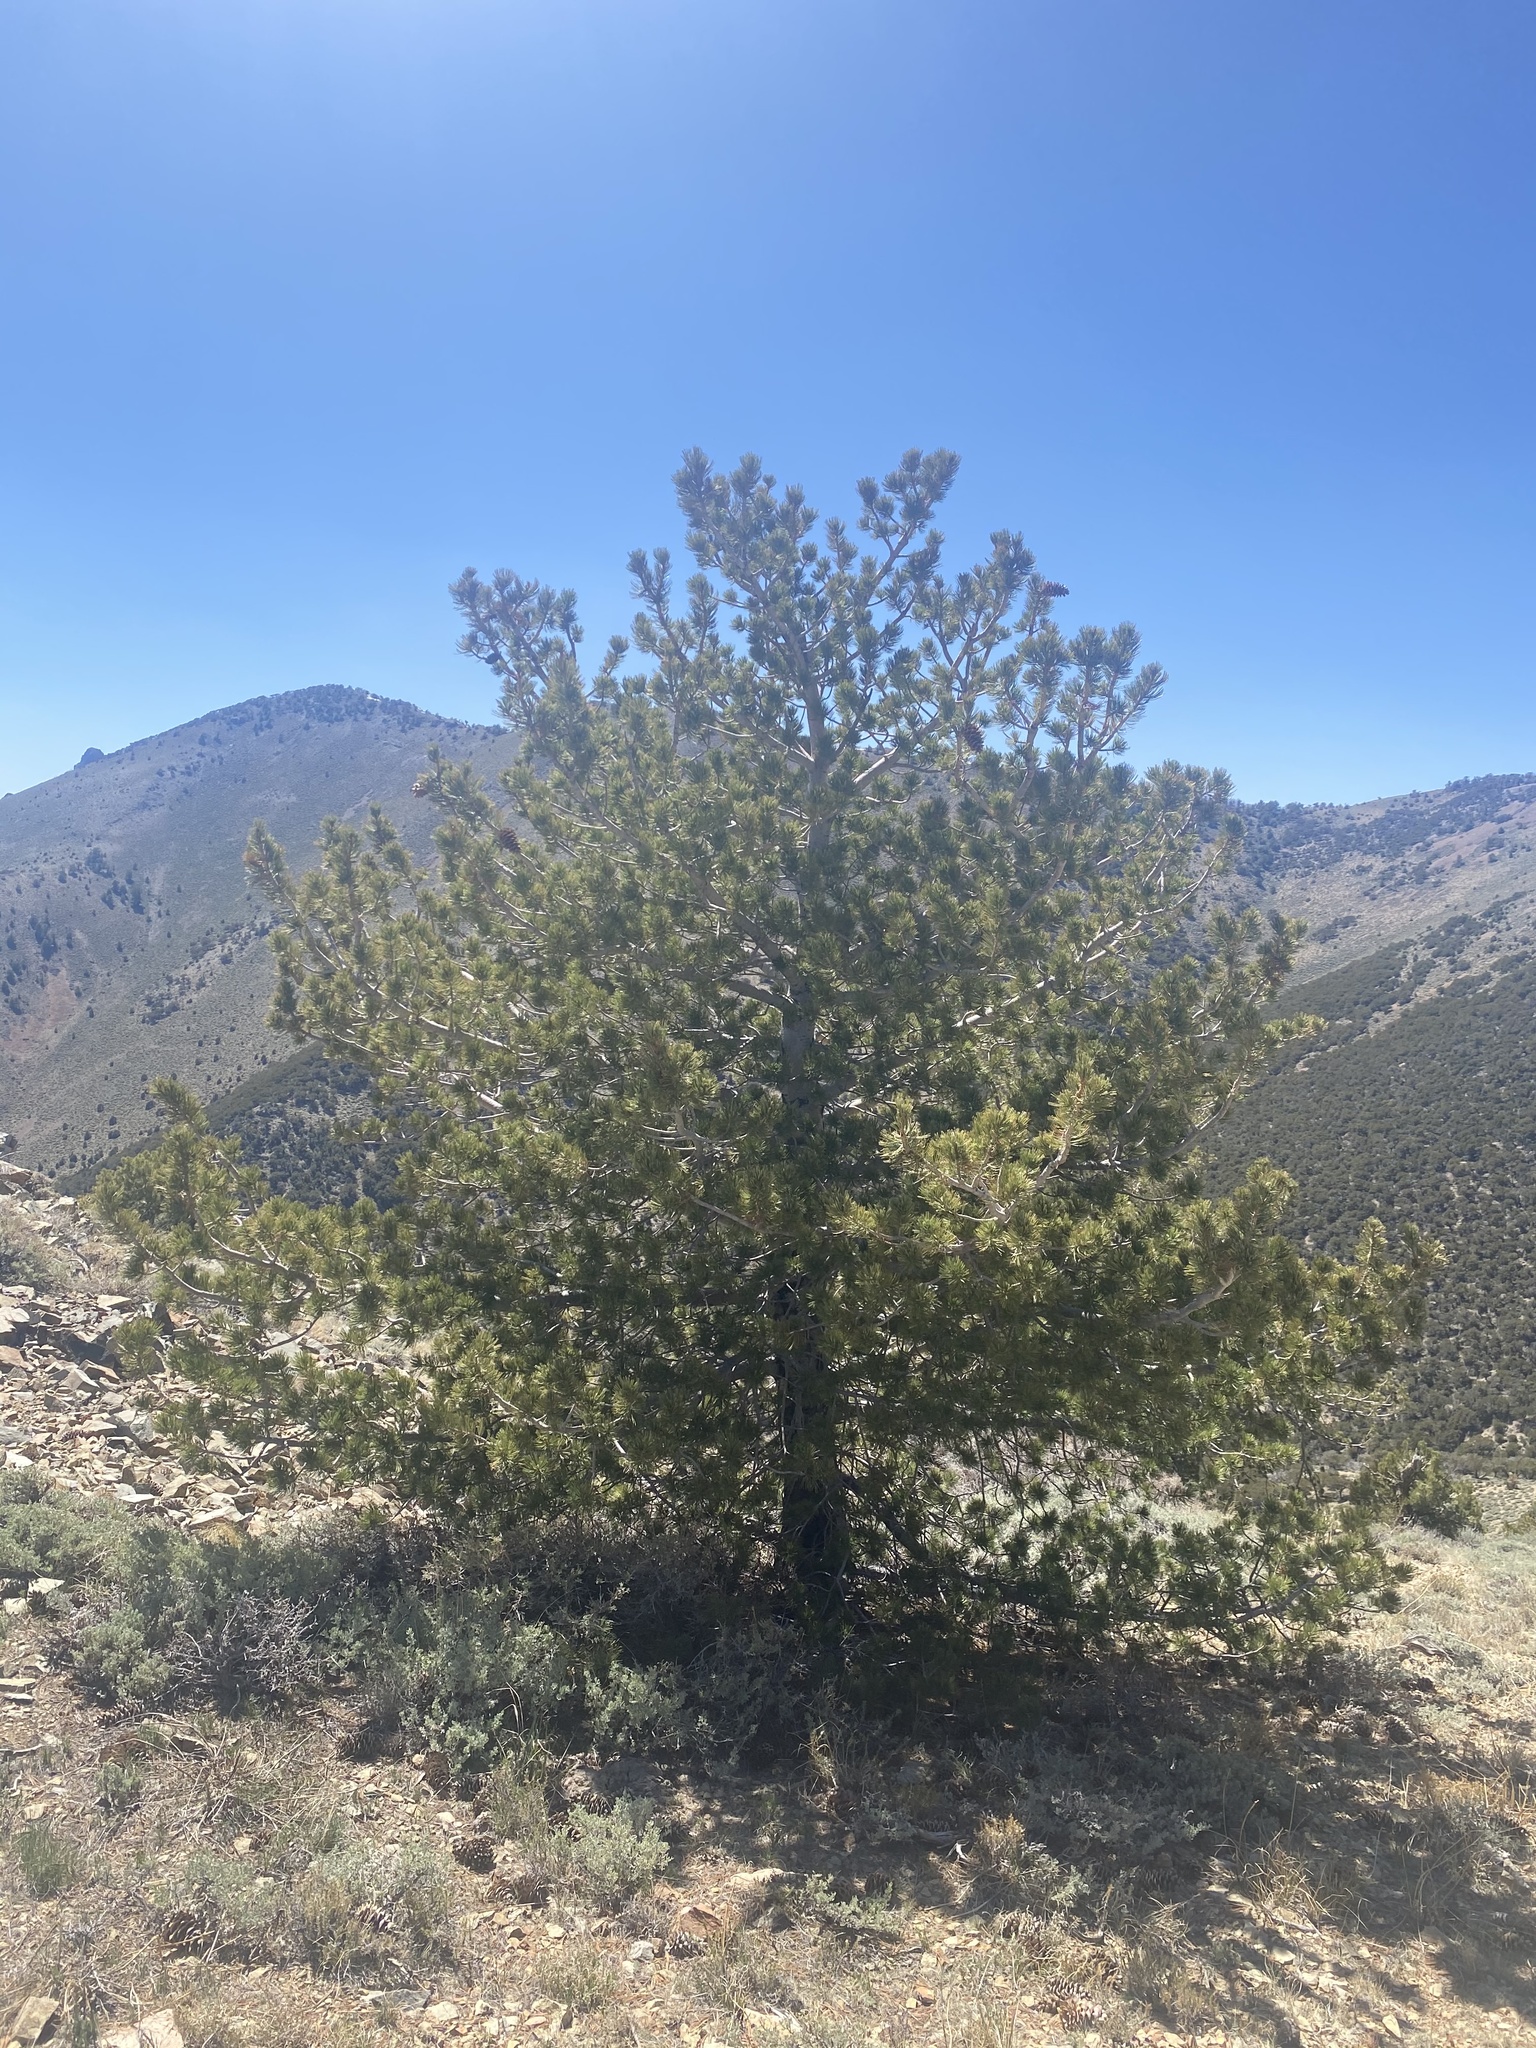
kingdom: Plantae
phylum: Tracheophyta
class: Pinopsida
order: Pinales
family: Pinaceae
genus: Pinus
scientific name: Pinus flexilis
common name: Limber pine
